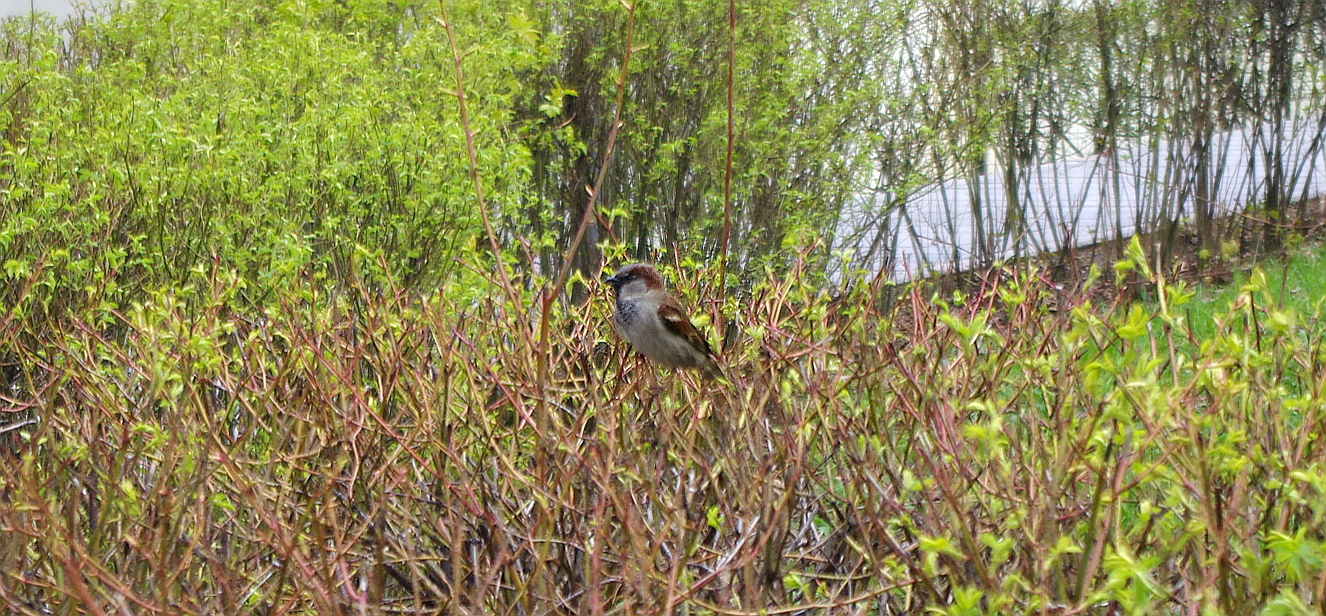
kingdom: Animalia
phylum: Chordata
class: Aves
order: Passeriformes
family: Passeridae
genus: Passer
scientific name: Passer domesticus
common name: House sparrow
